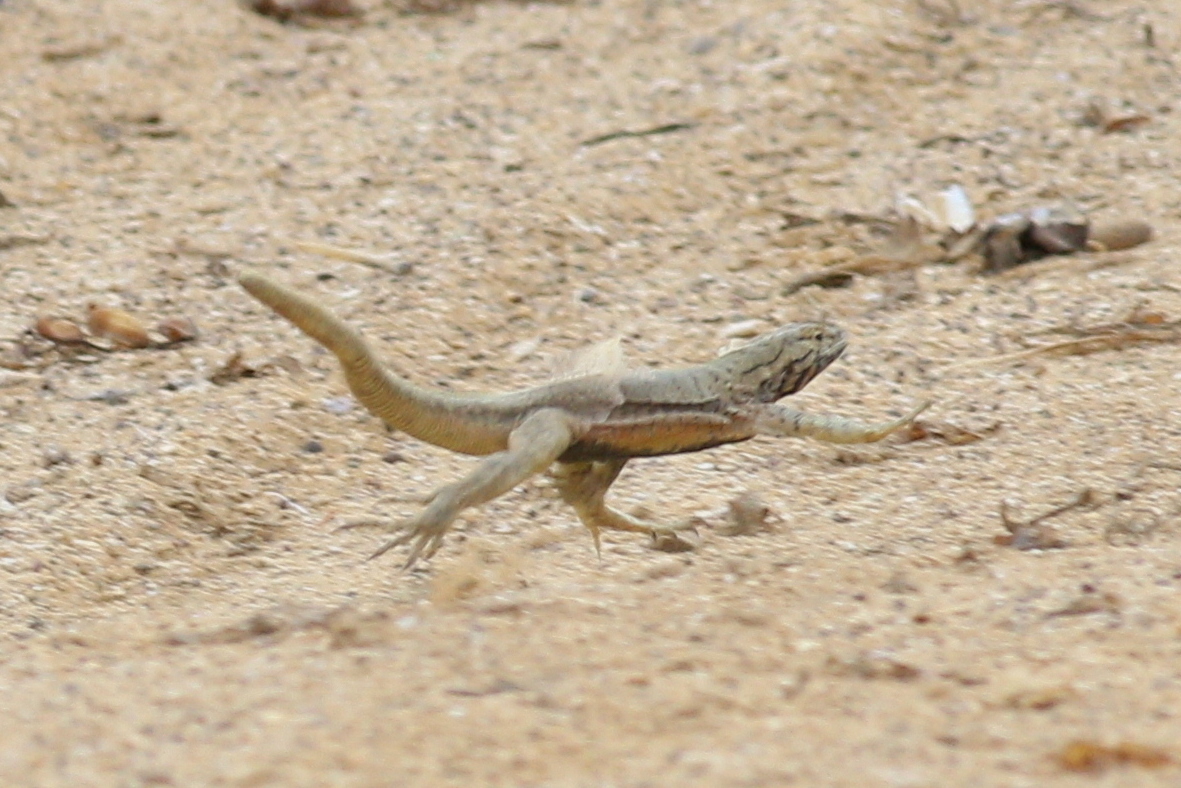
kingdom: Animalia
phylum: Chordata
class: Squamata
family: Tropiduridae
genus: Microlophus
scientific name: Microlophus peruvianus
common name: Peru pacific iguana
